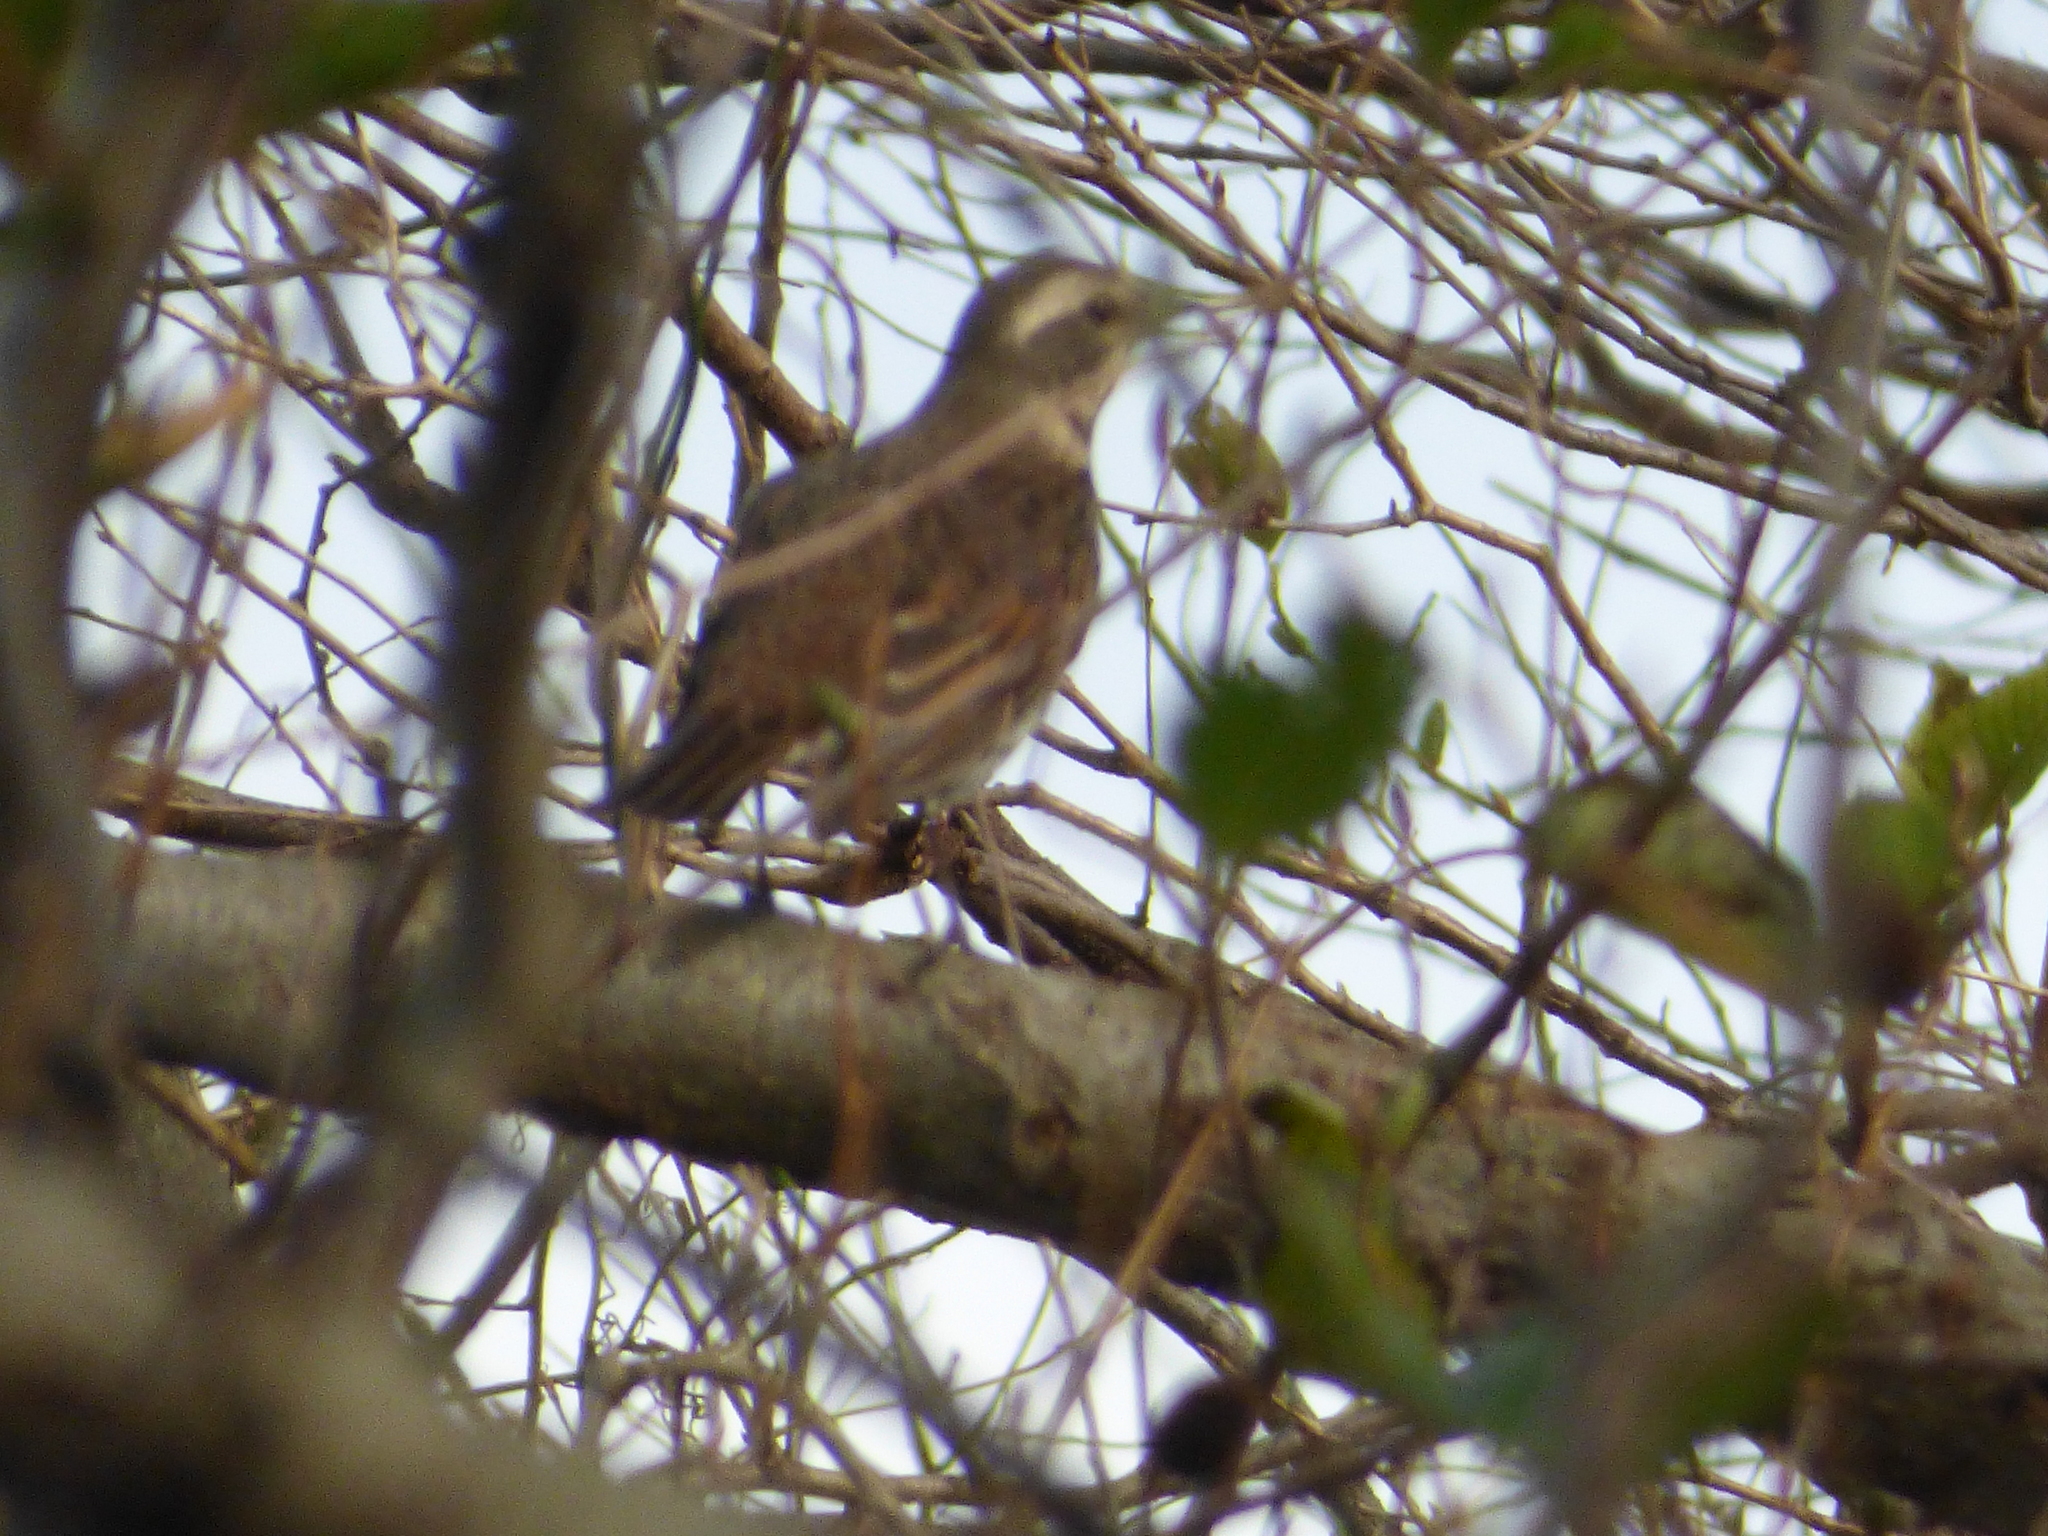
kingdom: Animalia
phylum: Chordata
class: Aves
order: Passeriformes
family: Turdidae
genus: Turdus
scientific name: Turdus eunomus
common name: Dusky thrush
